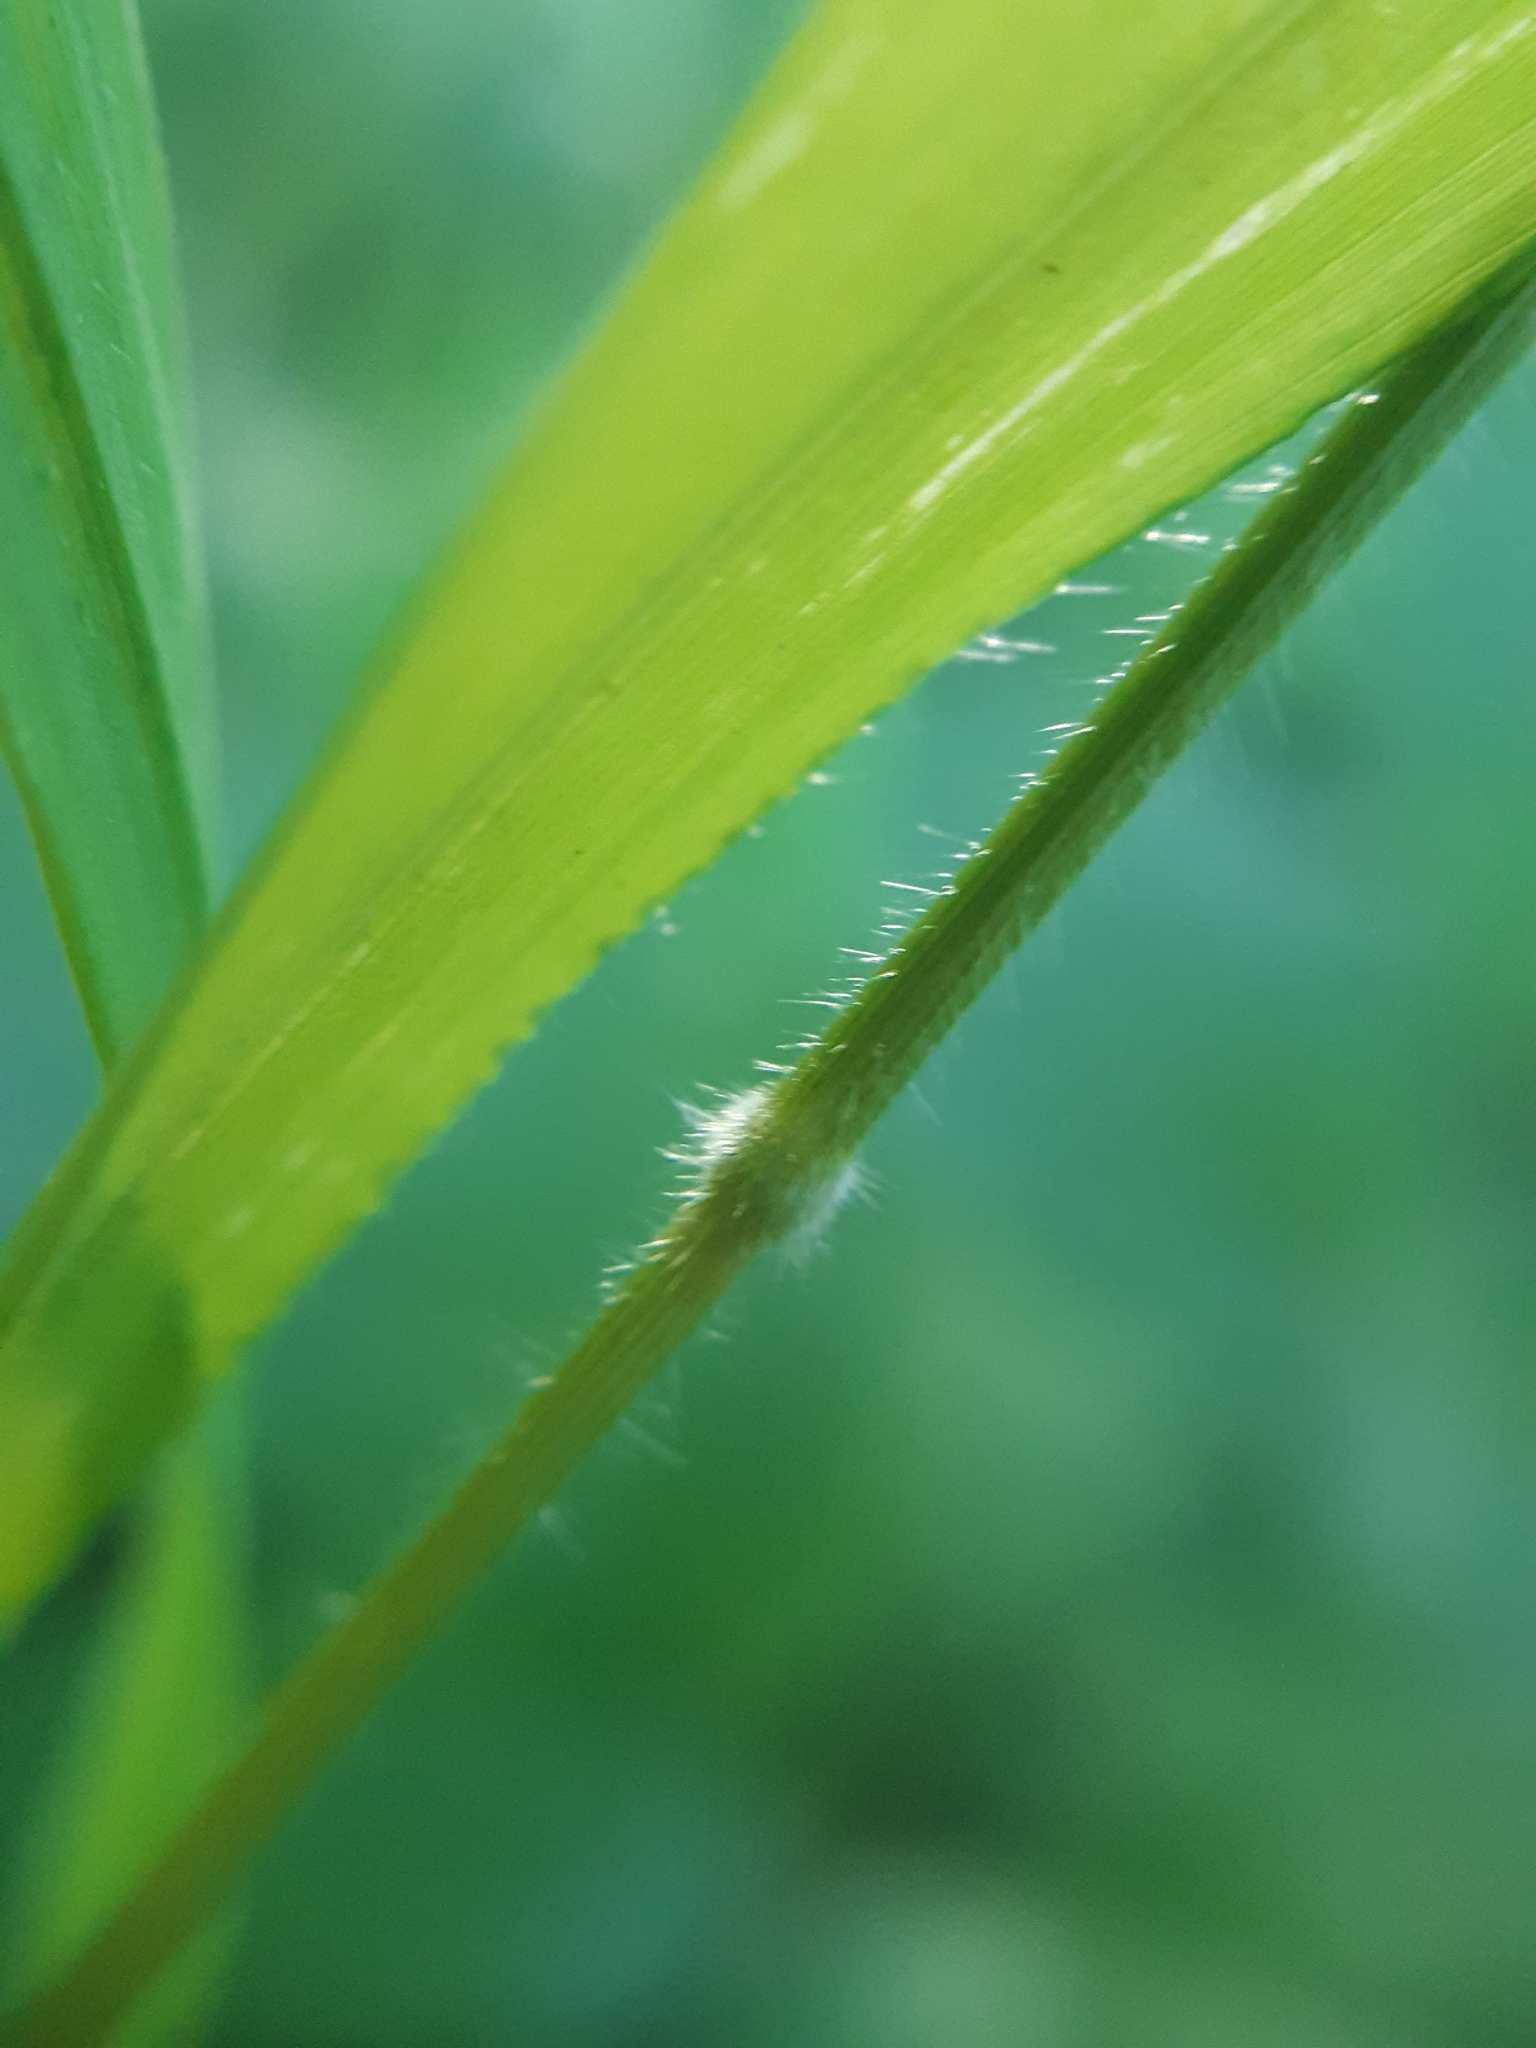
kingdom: Plantae
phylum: Tracheophyta
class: Liliopsida
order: Poales
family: Poaceae
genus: Brachypodium
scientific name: Brachypodium sylvaticum
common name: False-brome
